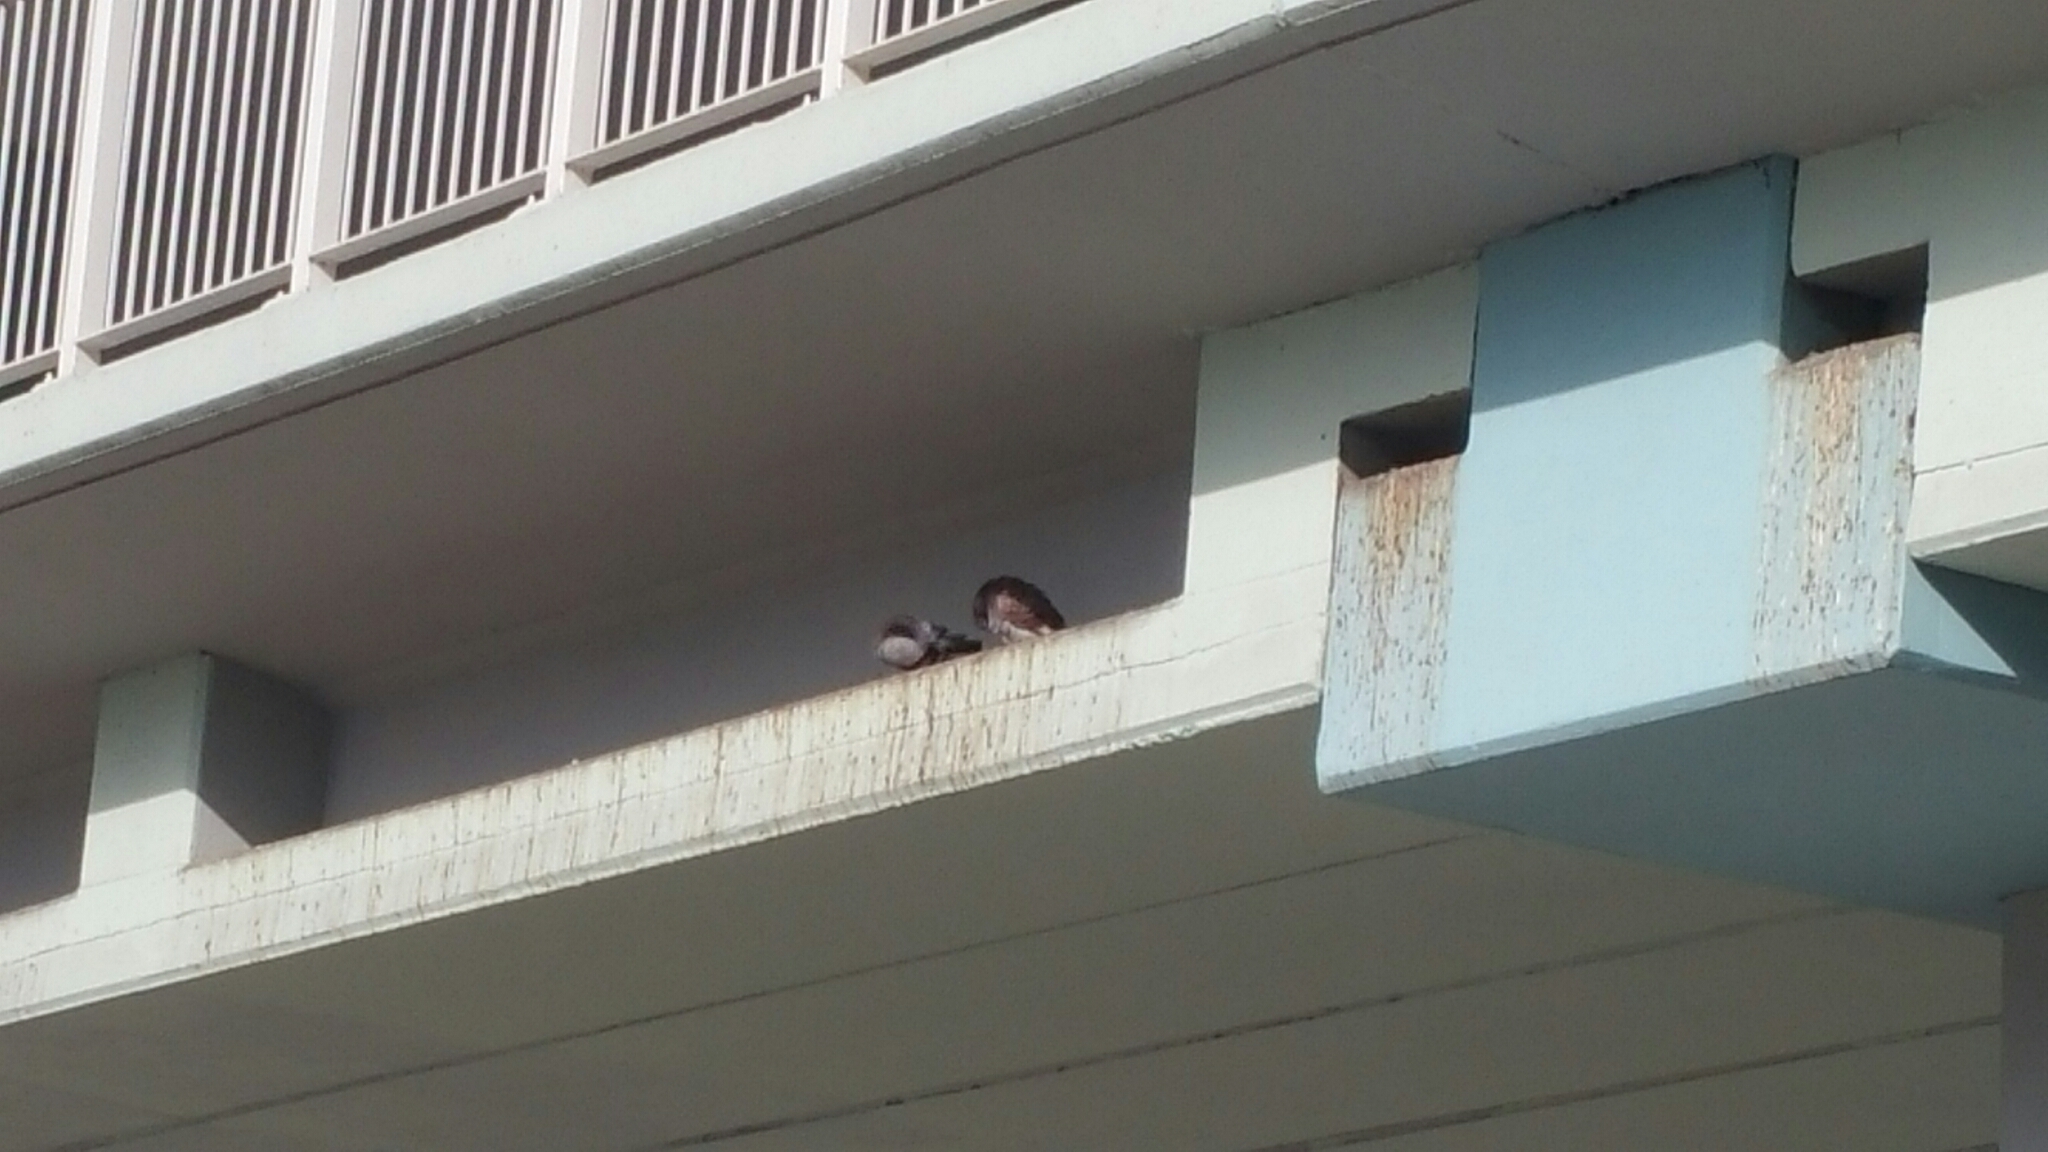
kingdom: Animalia
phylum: Chordata
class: Aves
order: Columbiformes
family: Columbidae
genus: Columba
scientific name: Columba livia
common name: Rock pigeon
